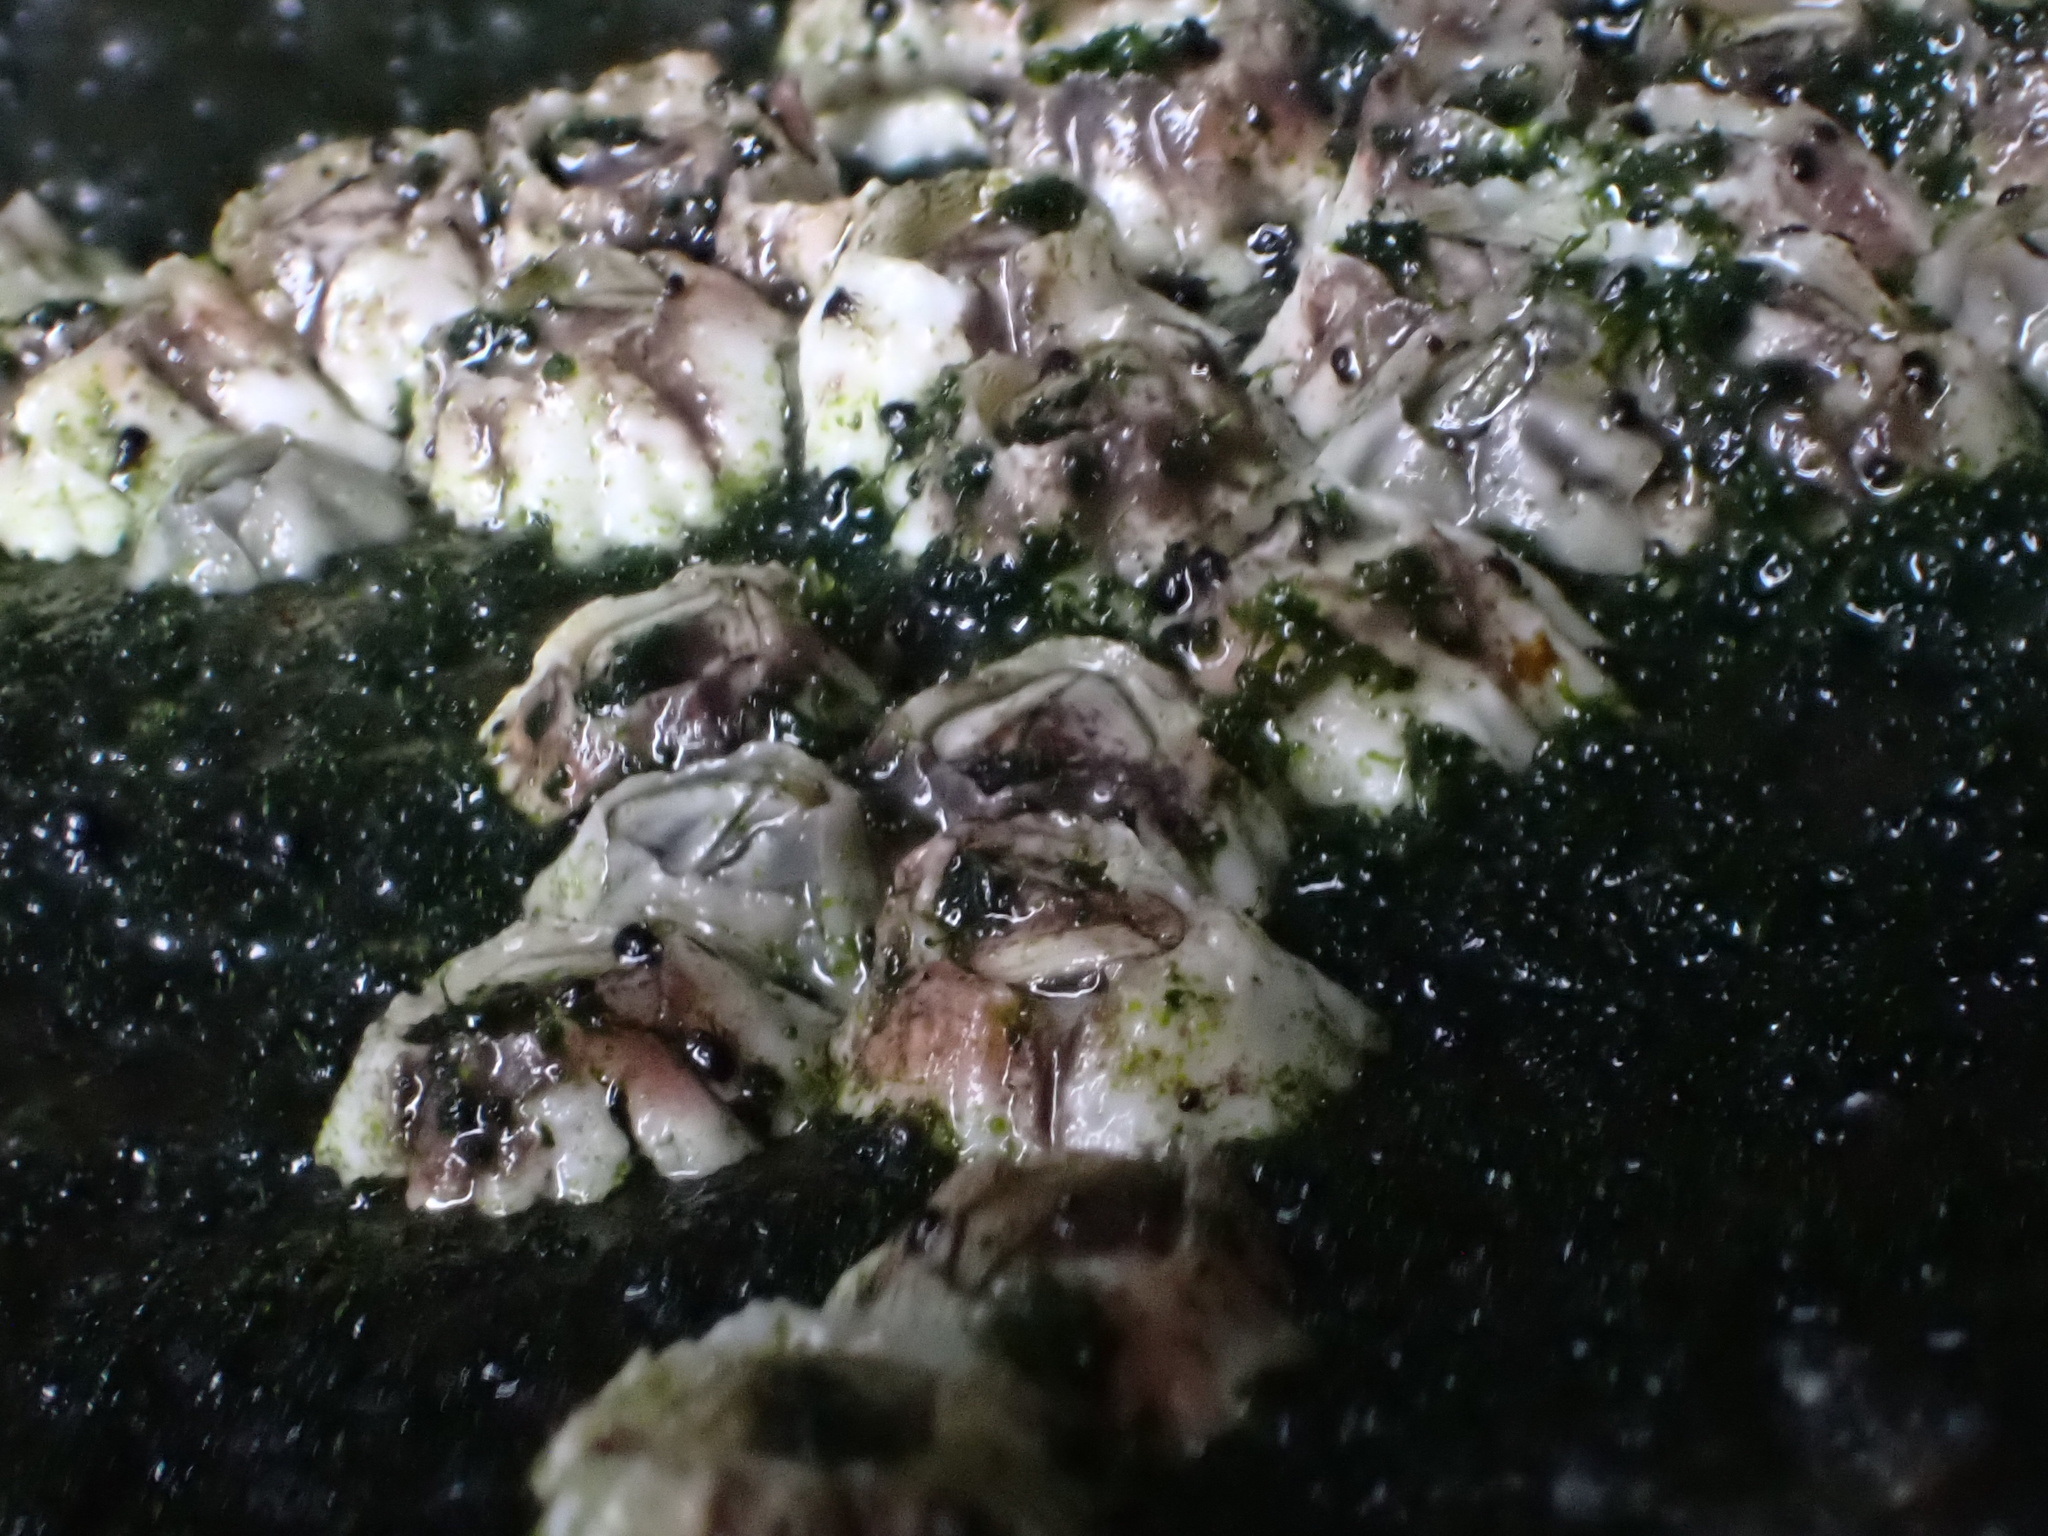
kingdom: Animalia
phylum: Arthropoda
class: Maxillopoda
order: Sessilia
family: Archaeobalanidae
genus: Semibalanus
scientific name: Semibalanus balanoides
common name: Acorn barnacle
